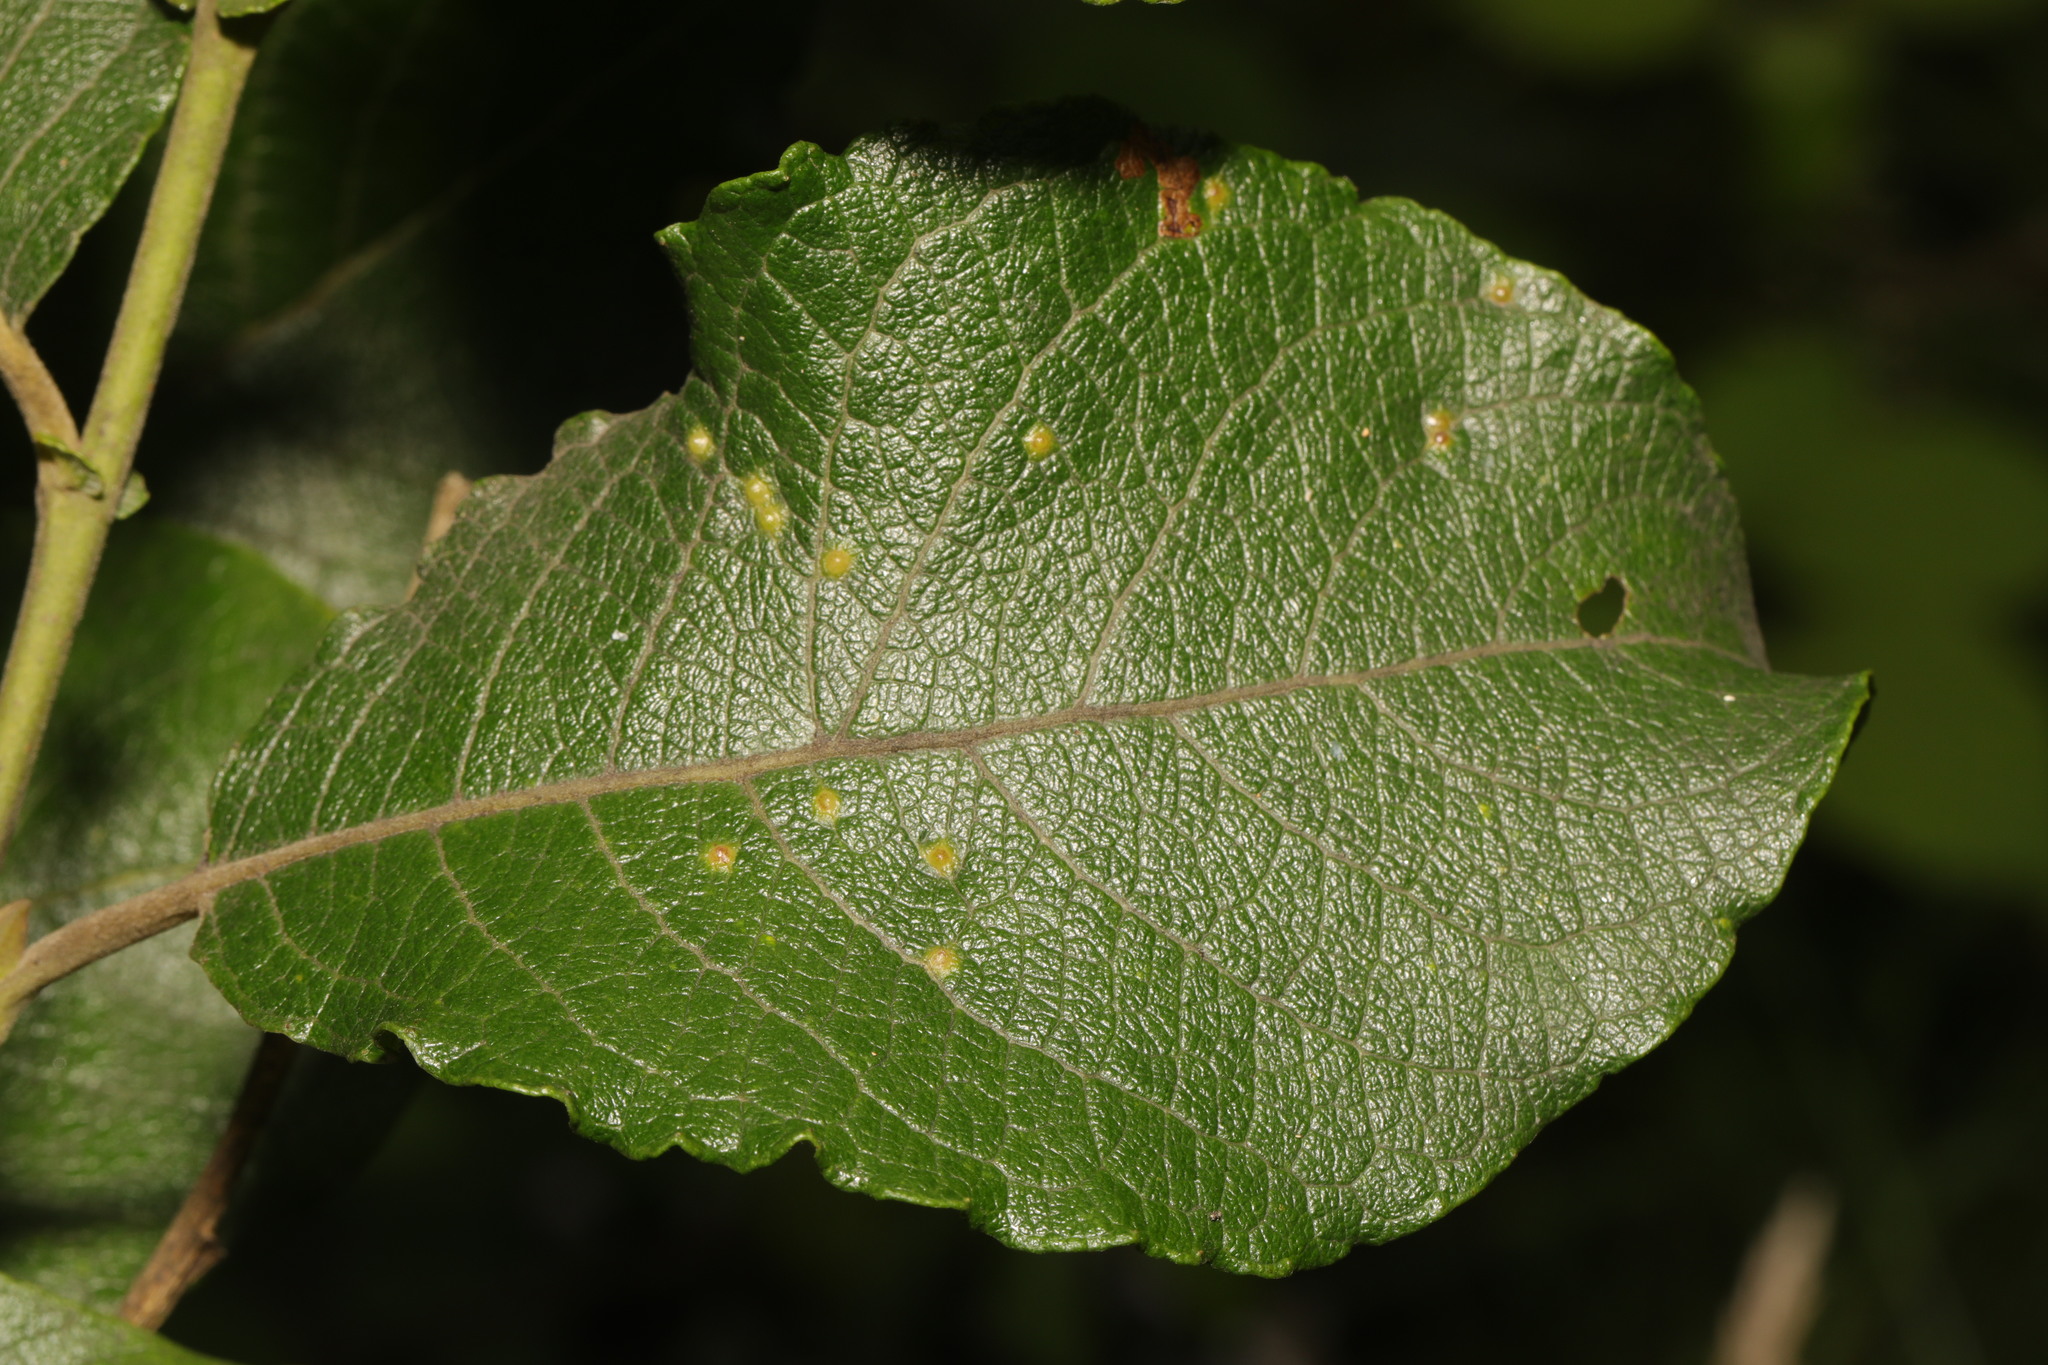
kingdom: Animalia
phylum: Arthropoda
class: Insecta
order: Diptera
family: Cecidomyiidae
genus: Iteomyia
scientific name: Iteomyia capreae
